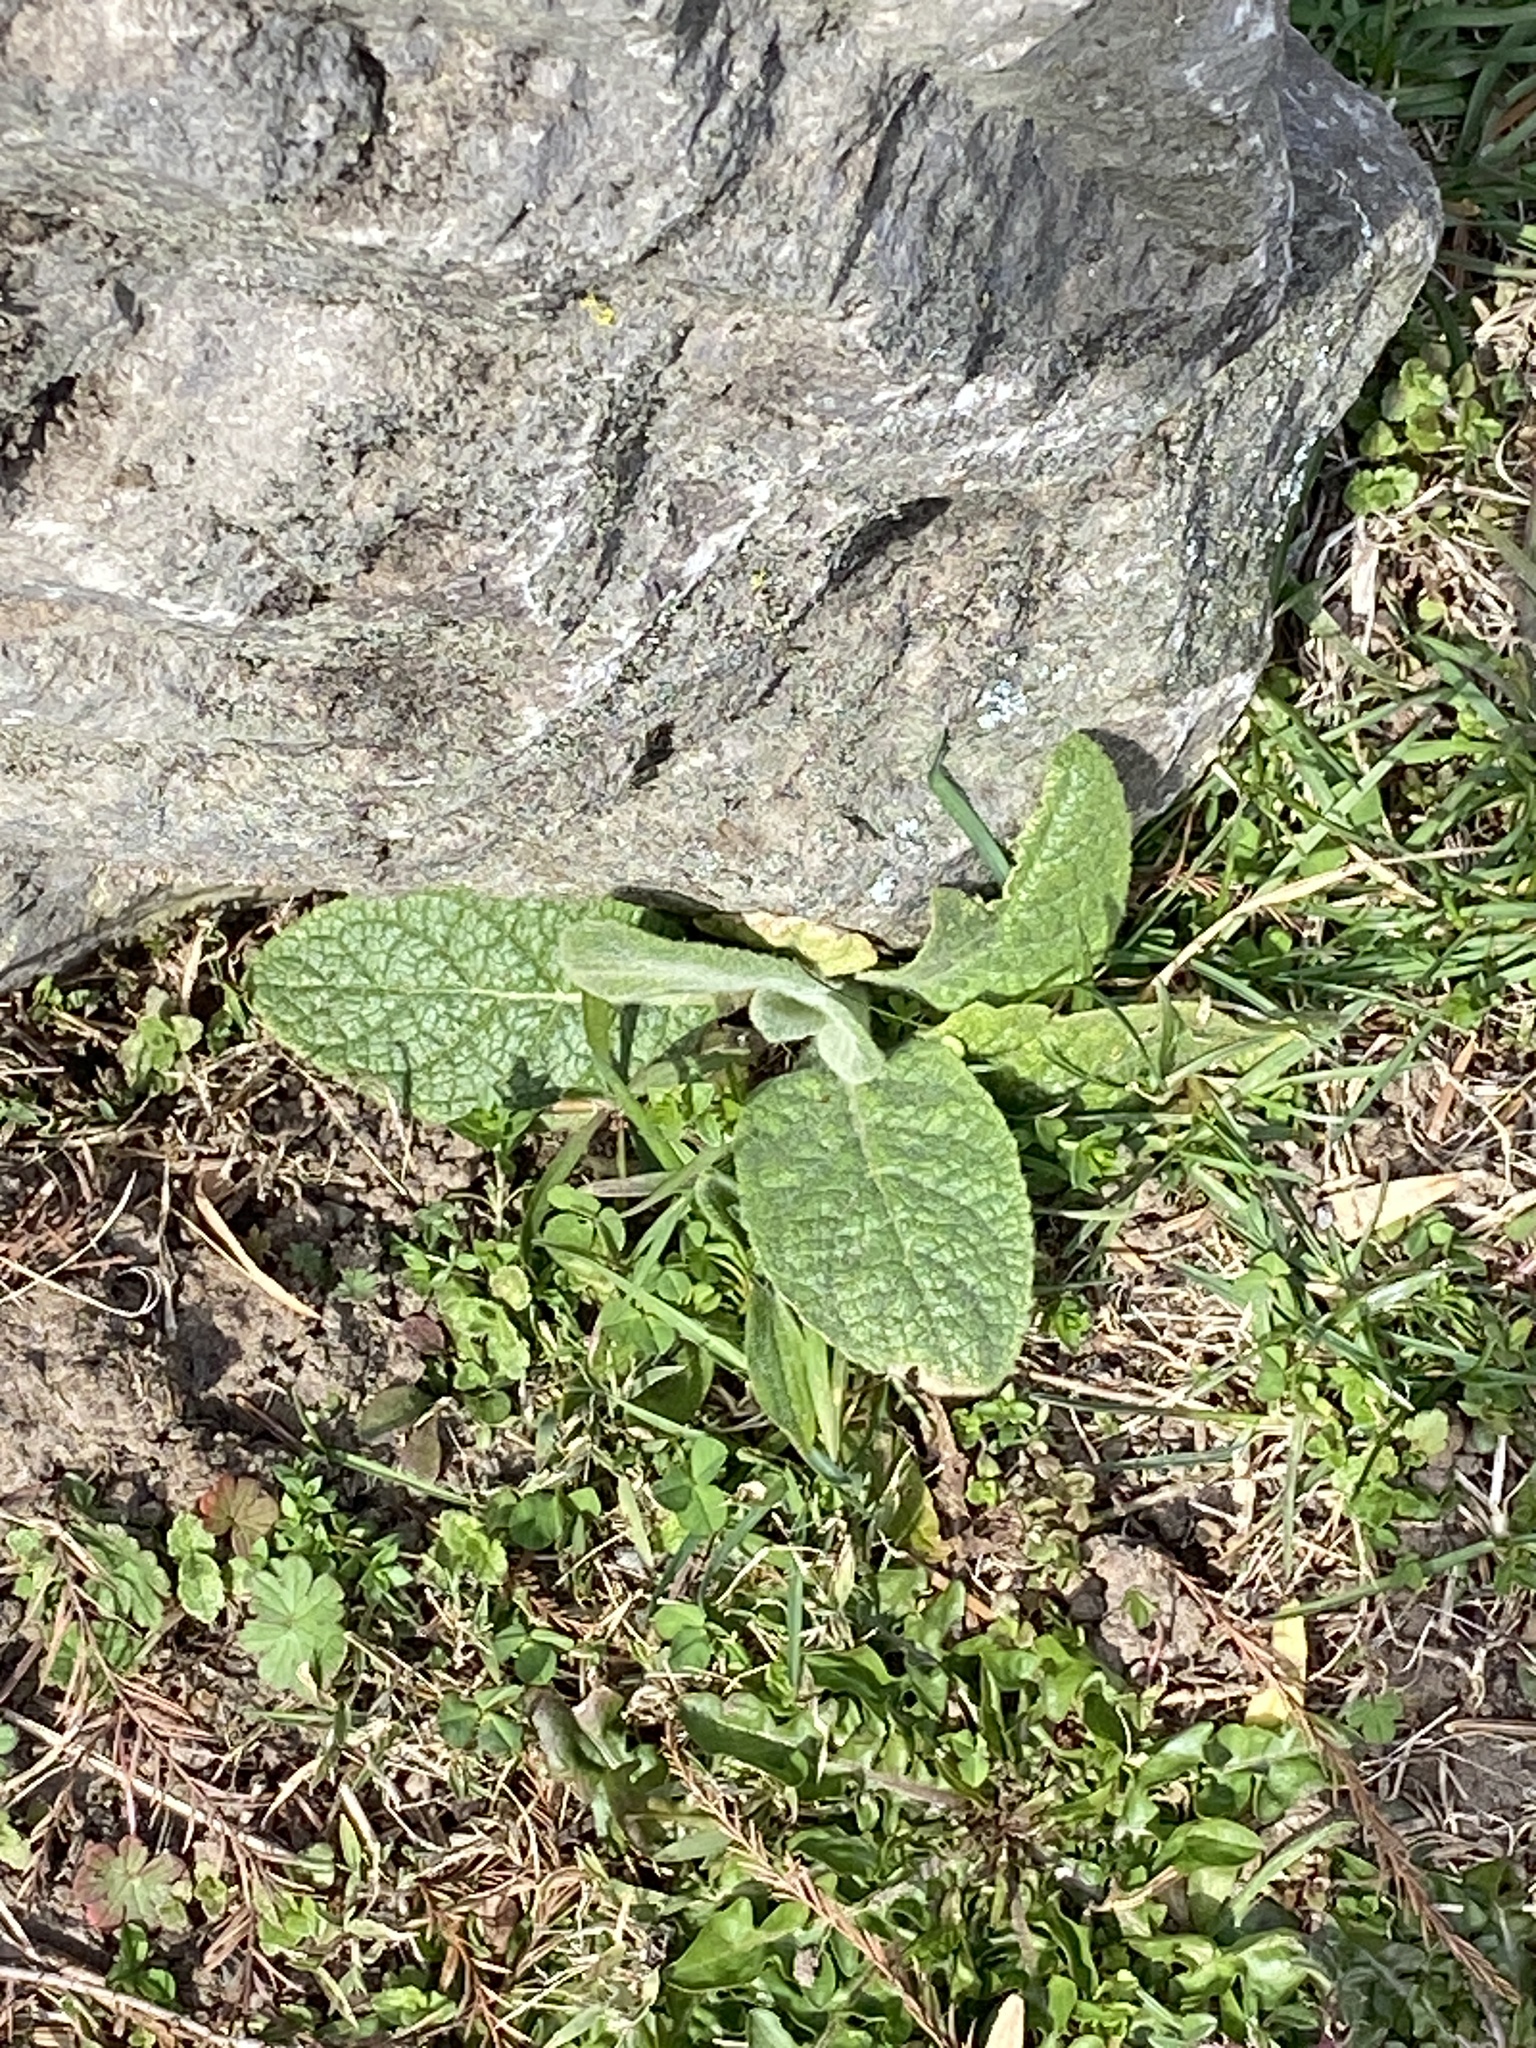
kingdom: Plantae
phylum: Tracheophyta
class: Magnoliopsida
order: Lamiales
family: Scrophulariaceae
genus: Verbascum
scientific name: Verbascum thapsus
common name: Common mullein
